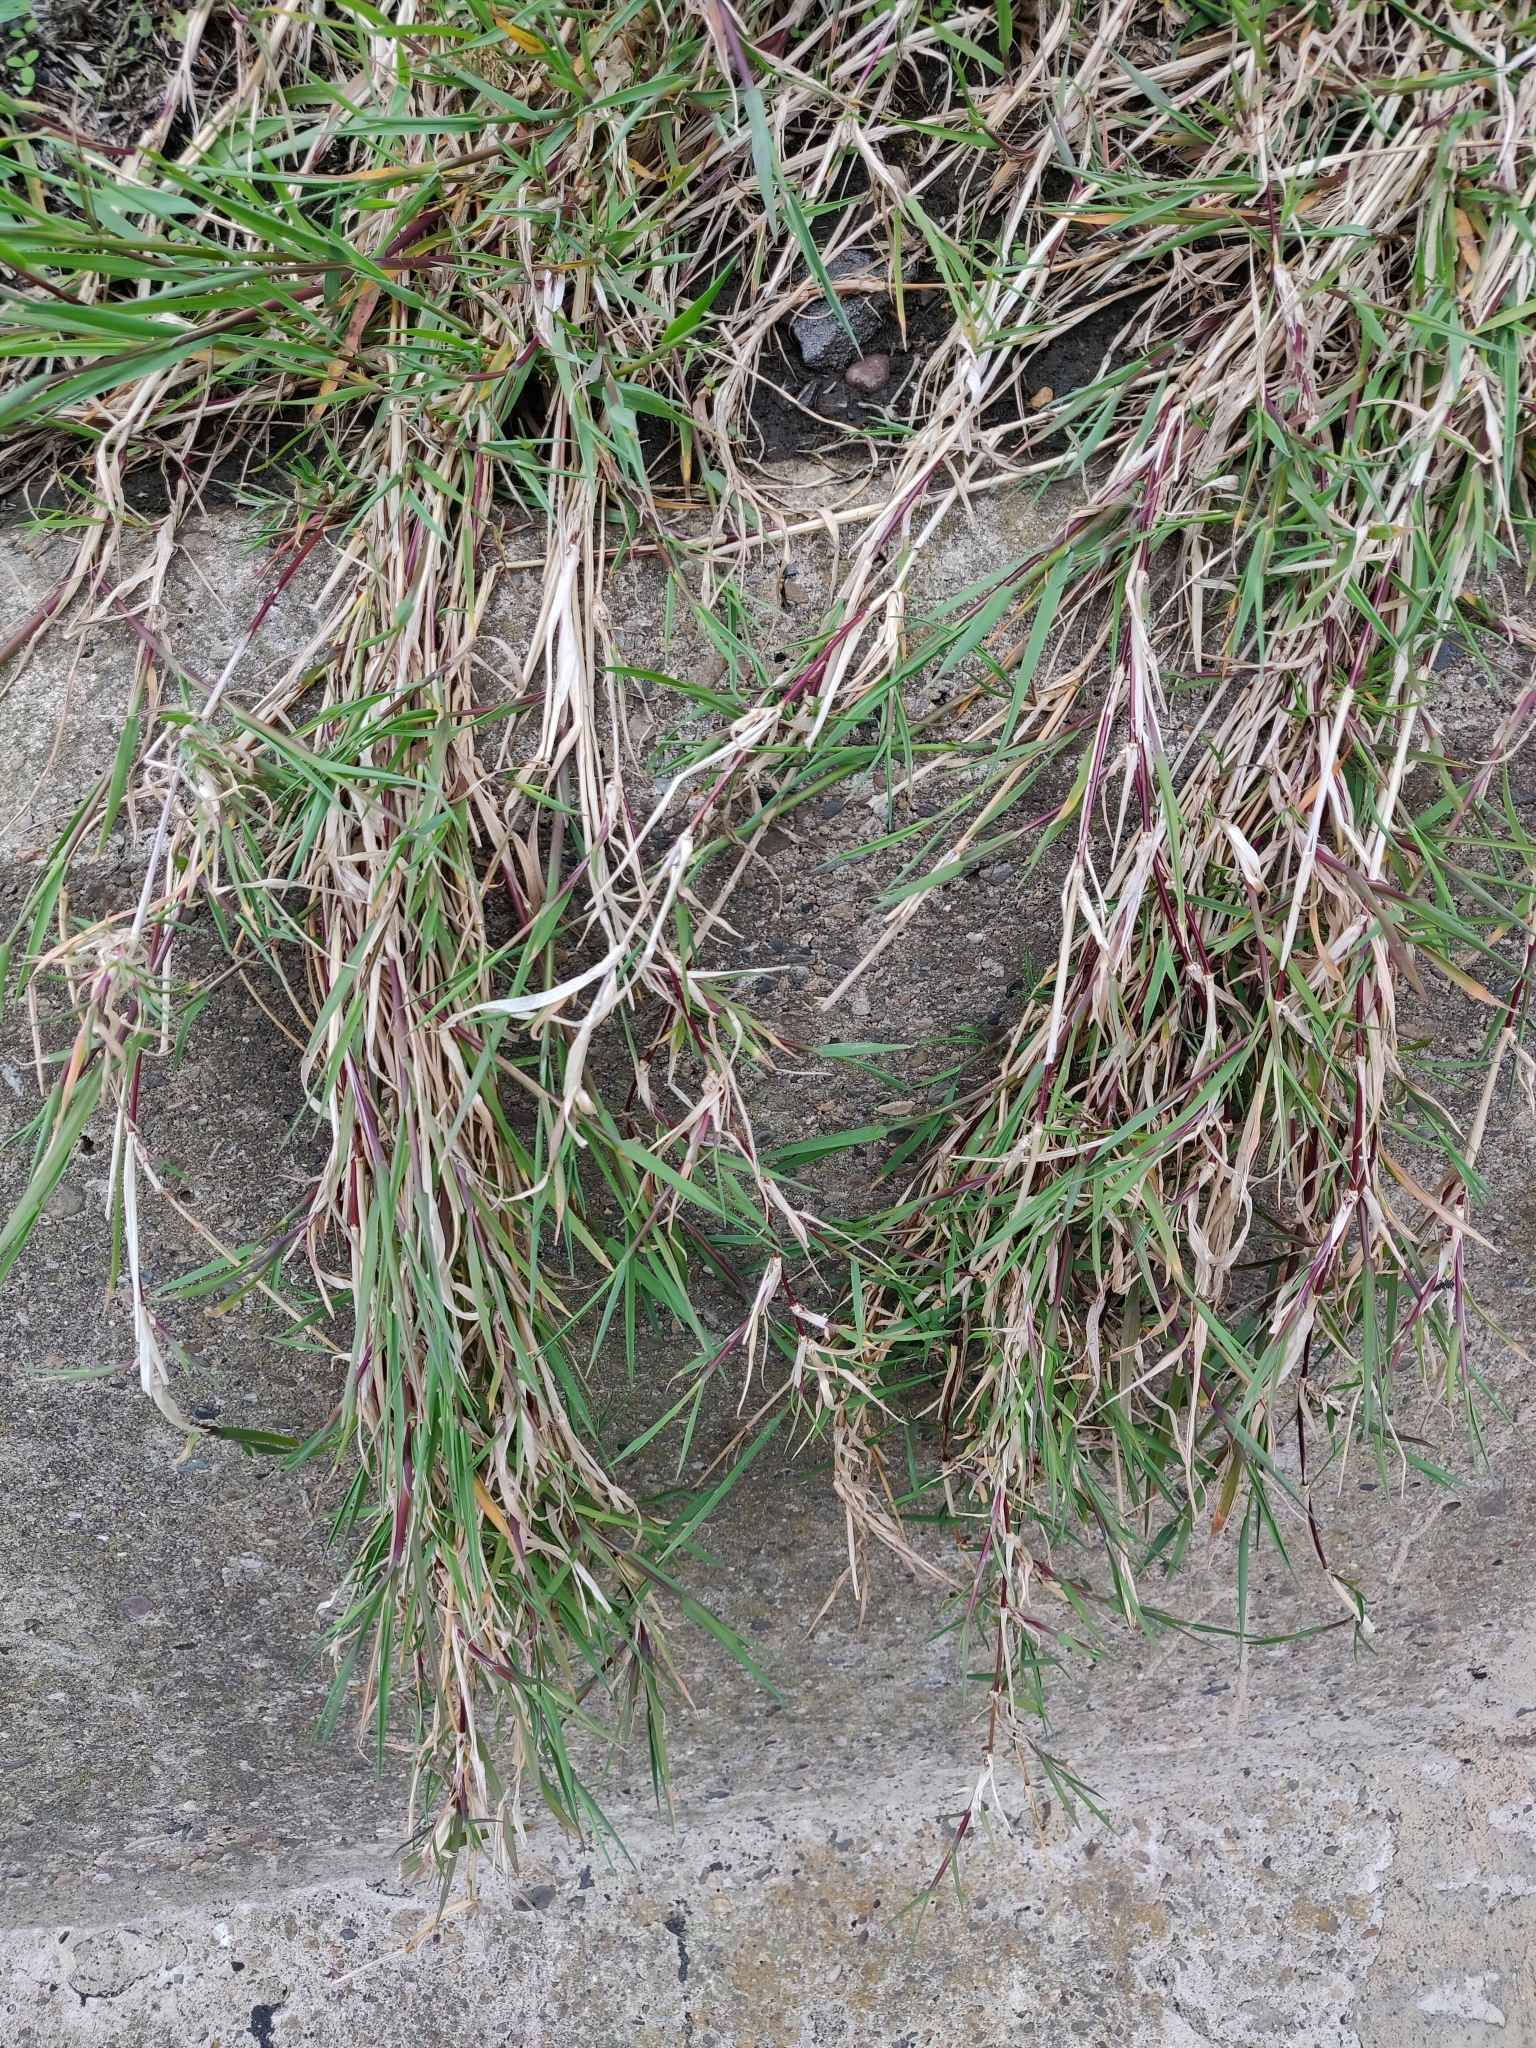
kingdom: Plantae
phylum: Tracheophyta
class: Liliopsida
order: Poales
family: Poaceae
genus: Agrostis
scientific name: Agrostis stolonifera
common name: Creeping bentgrass
